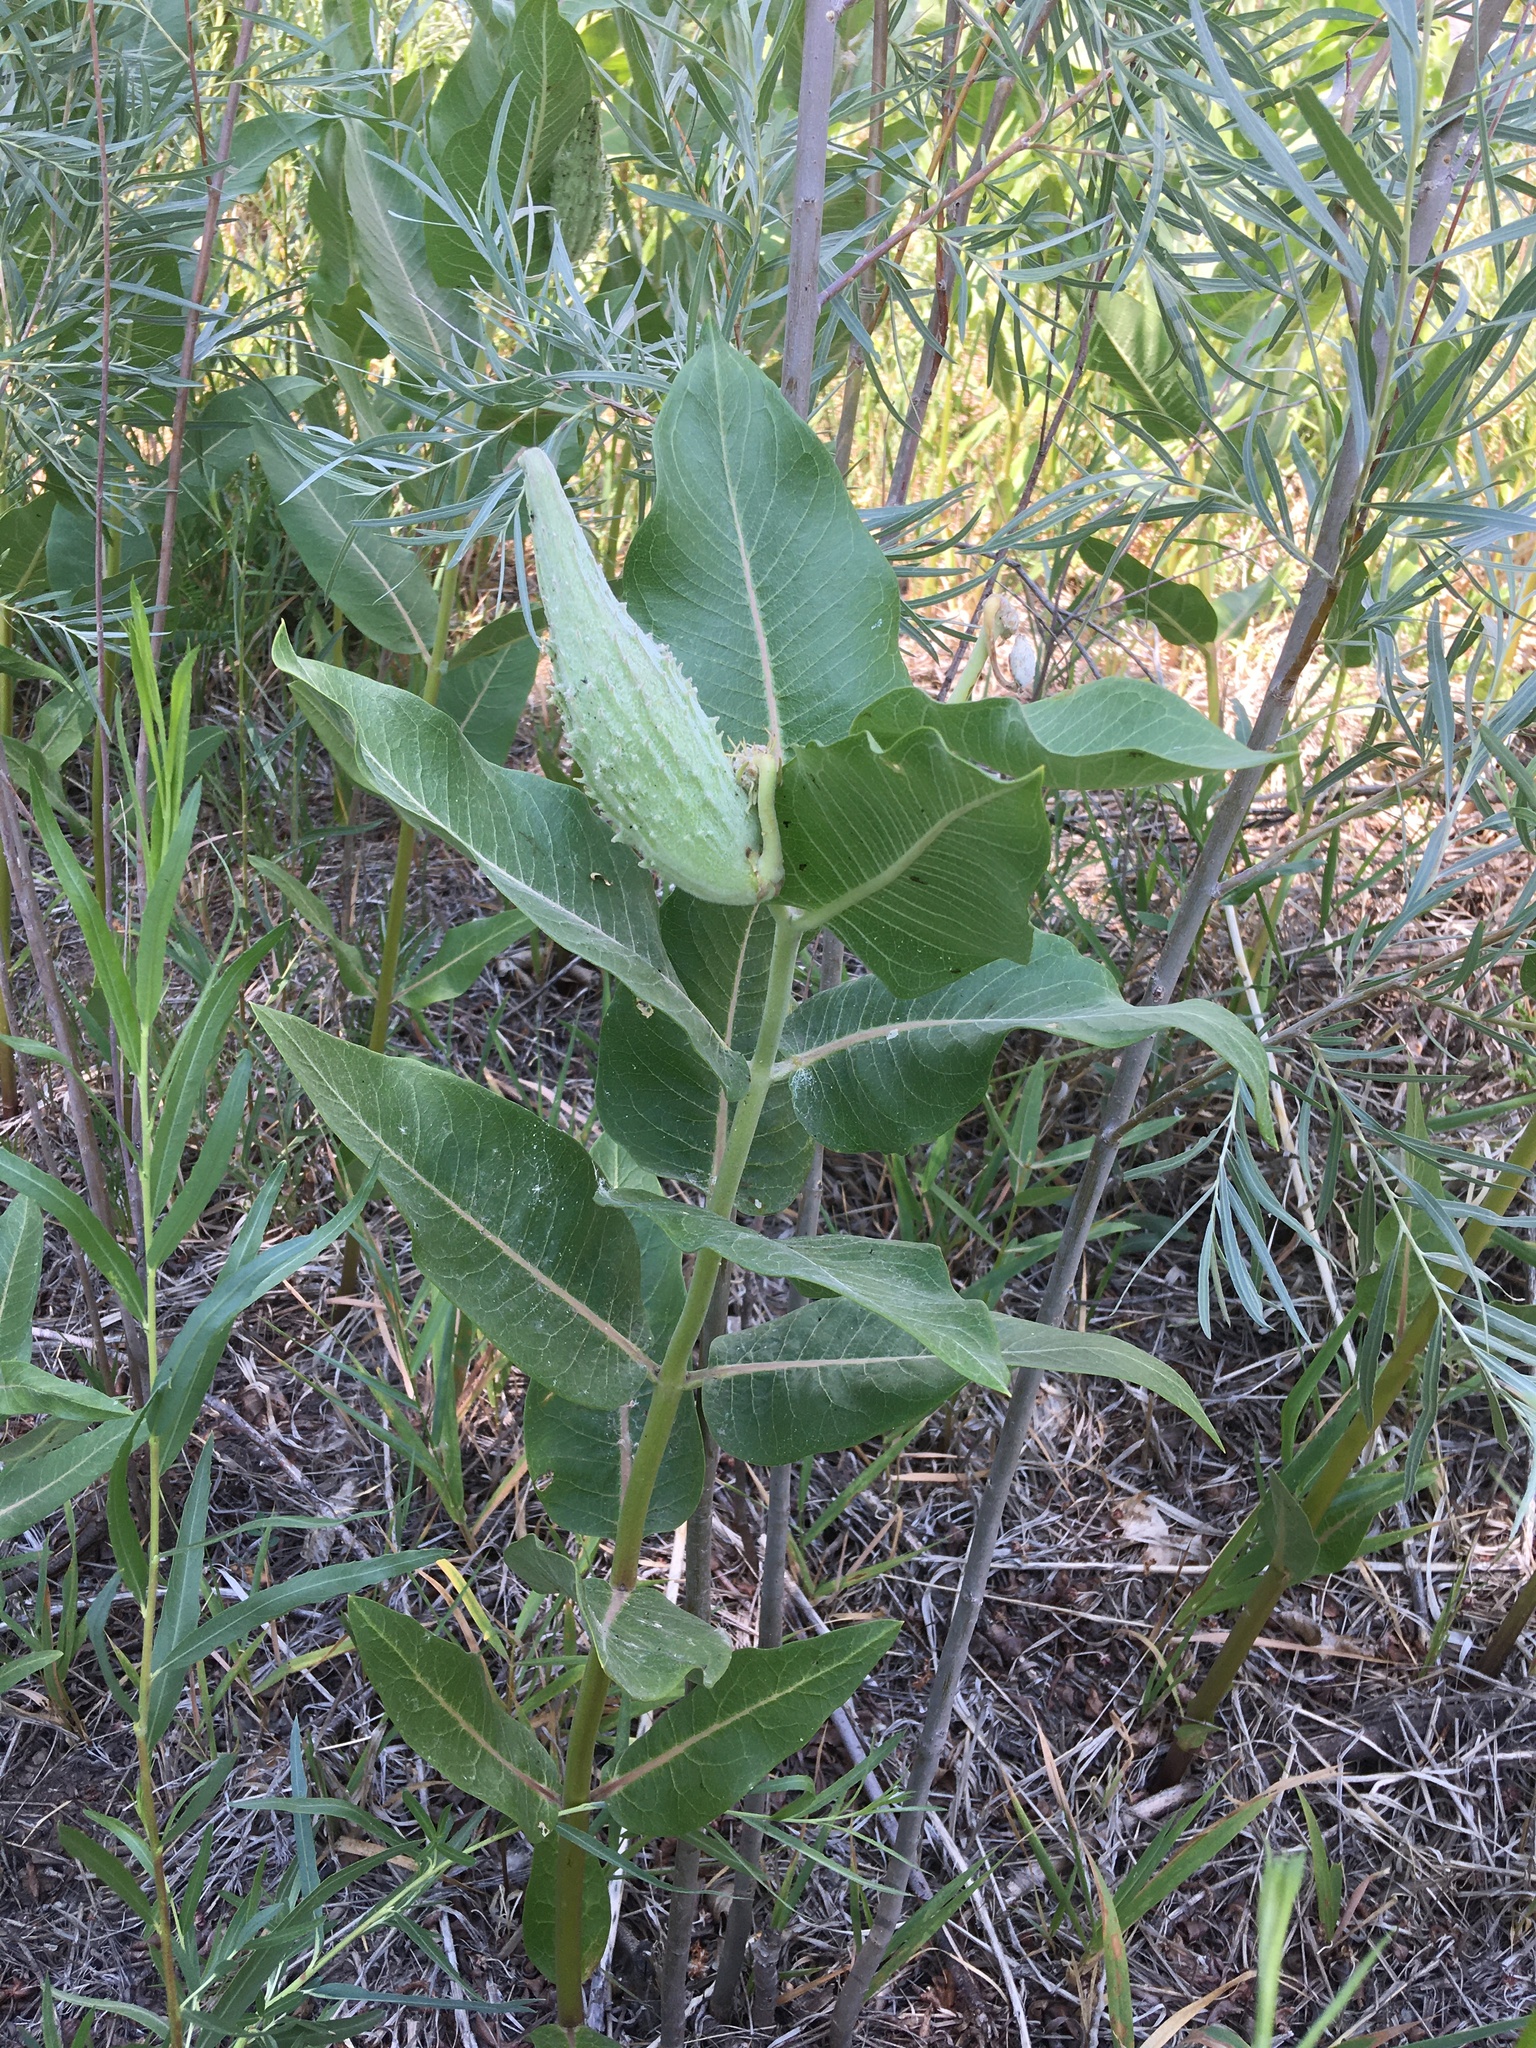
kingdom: Plantae
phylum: Tracheophyta
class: Magnoliopsida
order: Gentianales
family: Apocynaceae
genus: Asclepias
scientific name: Asclepias speciosa
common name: Showy milkweed
